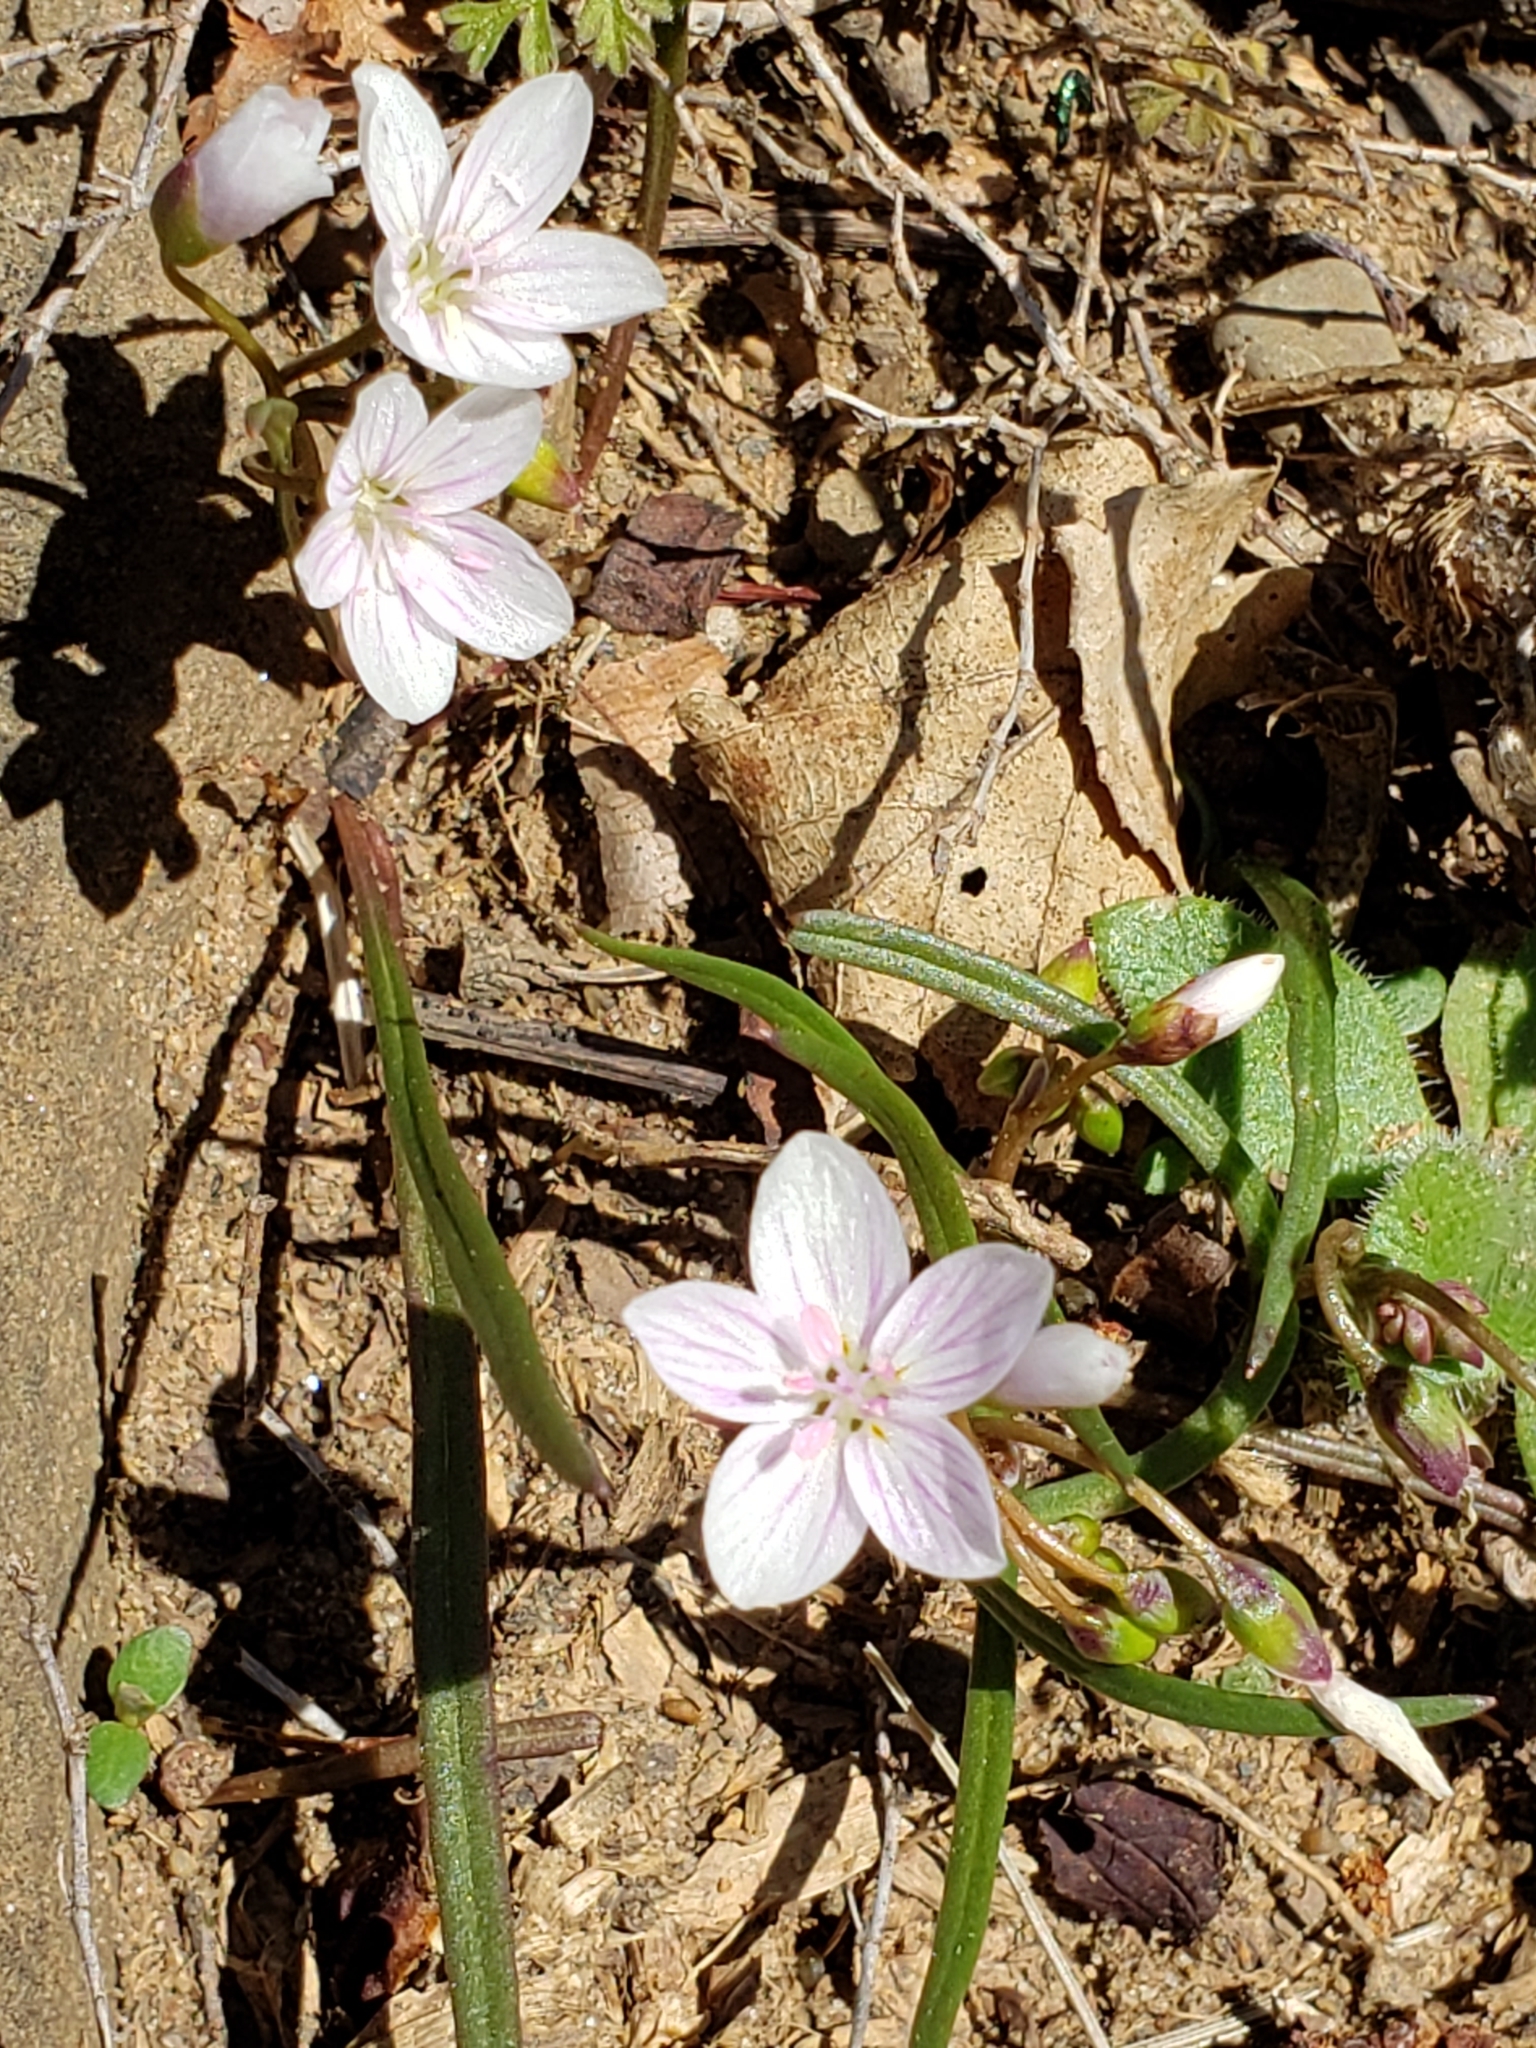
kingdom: Plantae
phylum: Tracheophyta
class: Magnoliopsida
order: Caryophyllales
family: Montiaceae
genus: Claytonia
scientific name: Claytonia virginica
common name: Virginia springbeauty
